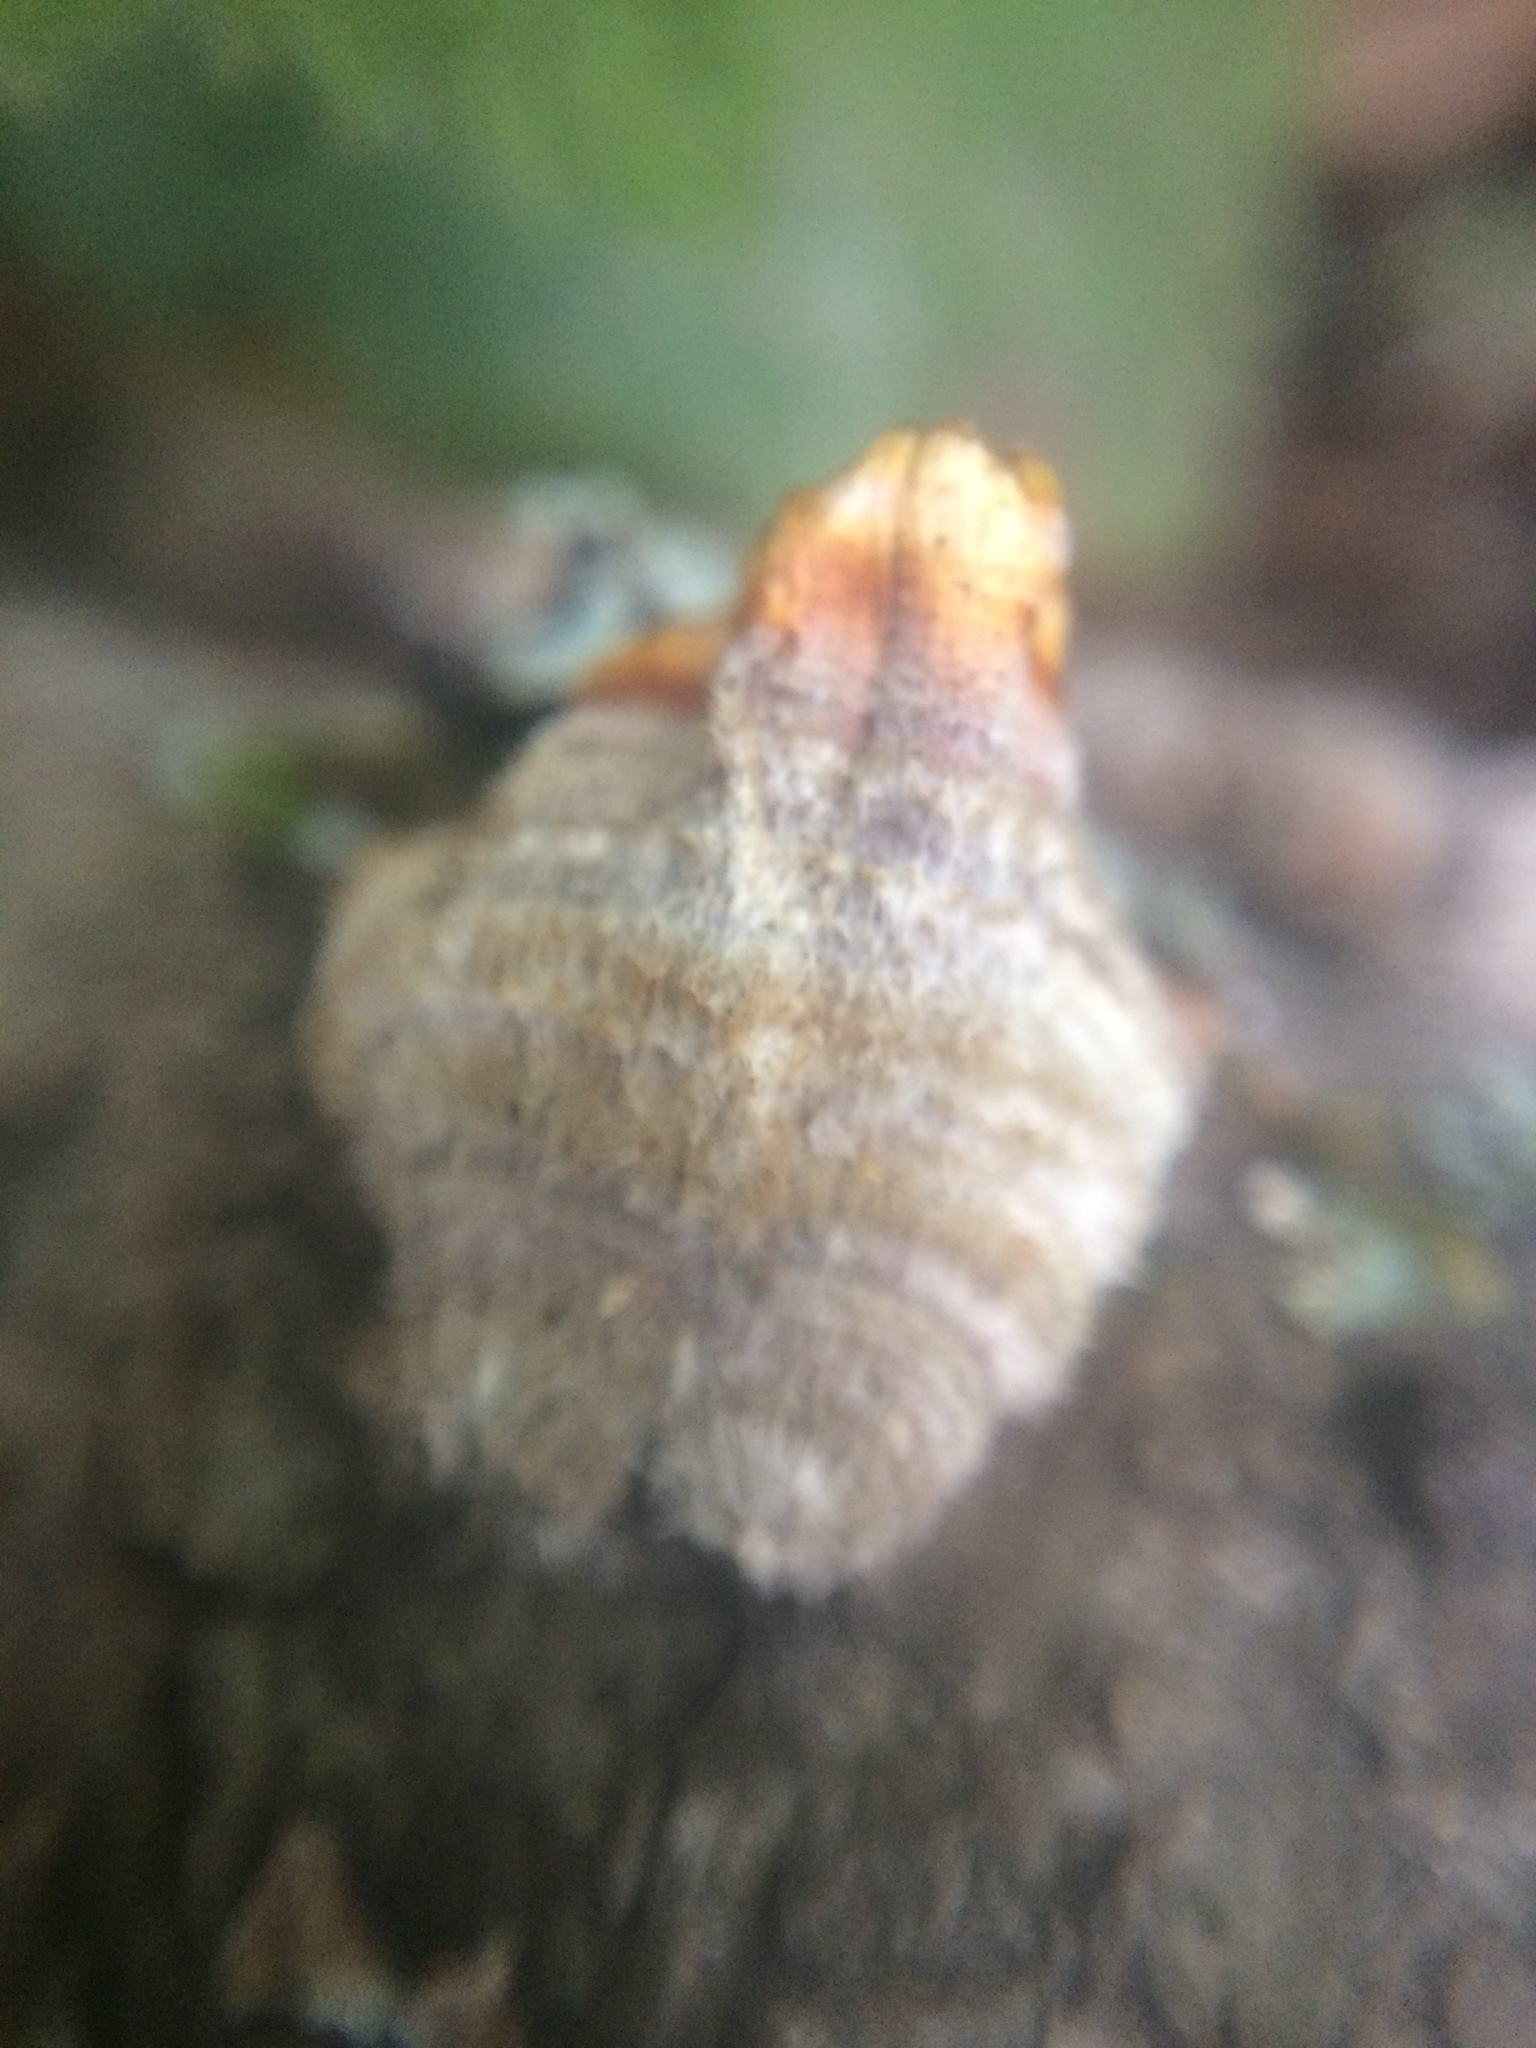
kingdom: Fungi
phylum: Basidiomycota
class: Agaricomycetes
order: Russulales
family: Stereaceae
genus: Stereum
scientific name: Stereum hirsutum
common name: Hairy curtain crust
